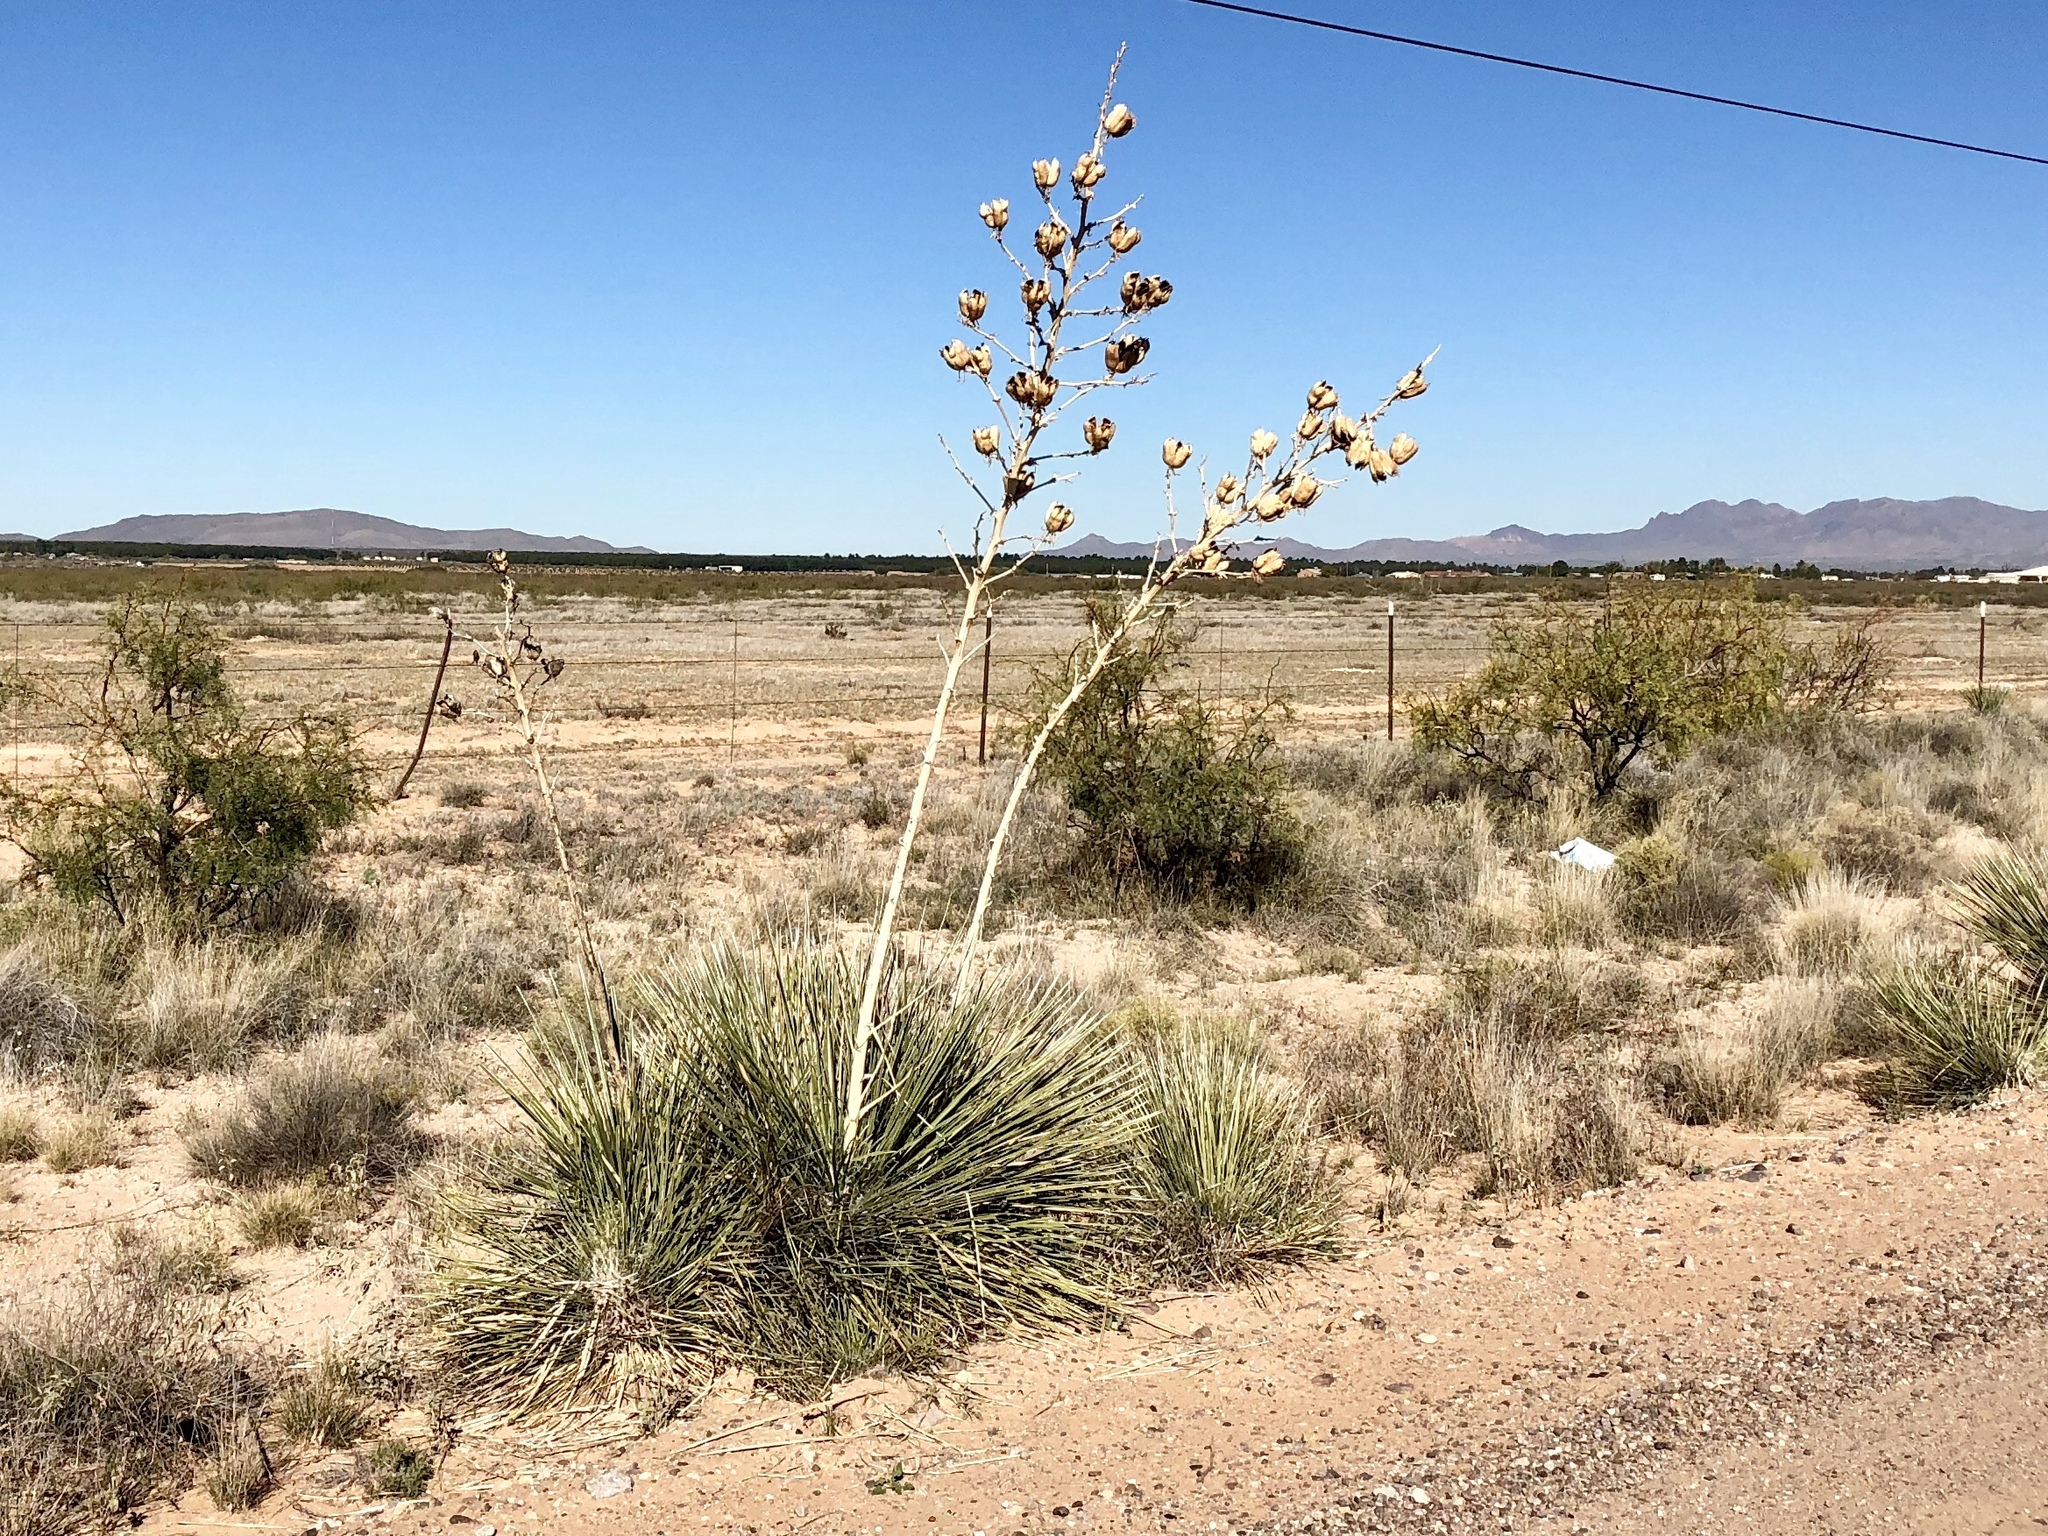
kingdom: Plantae
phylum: Tracheophyta
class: Liliopsida
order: Asparagales
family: Asparagaceae
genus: Yucca
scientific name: Yucca elata
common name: Palmella
